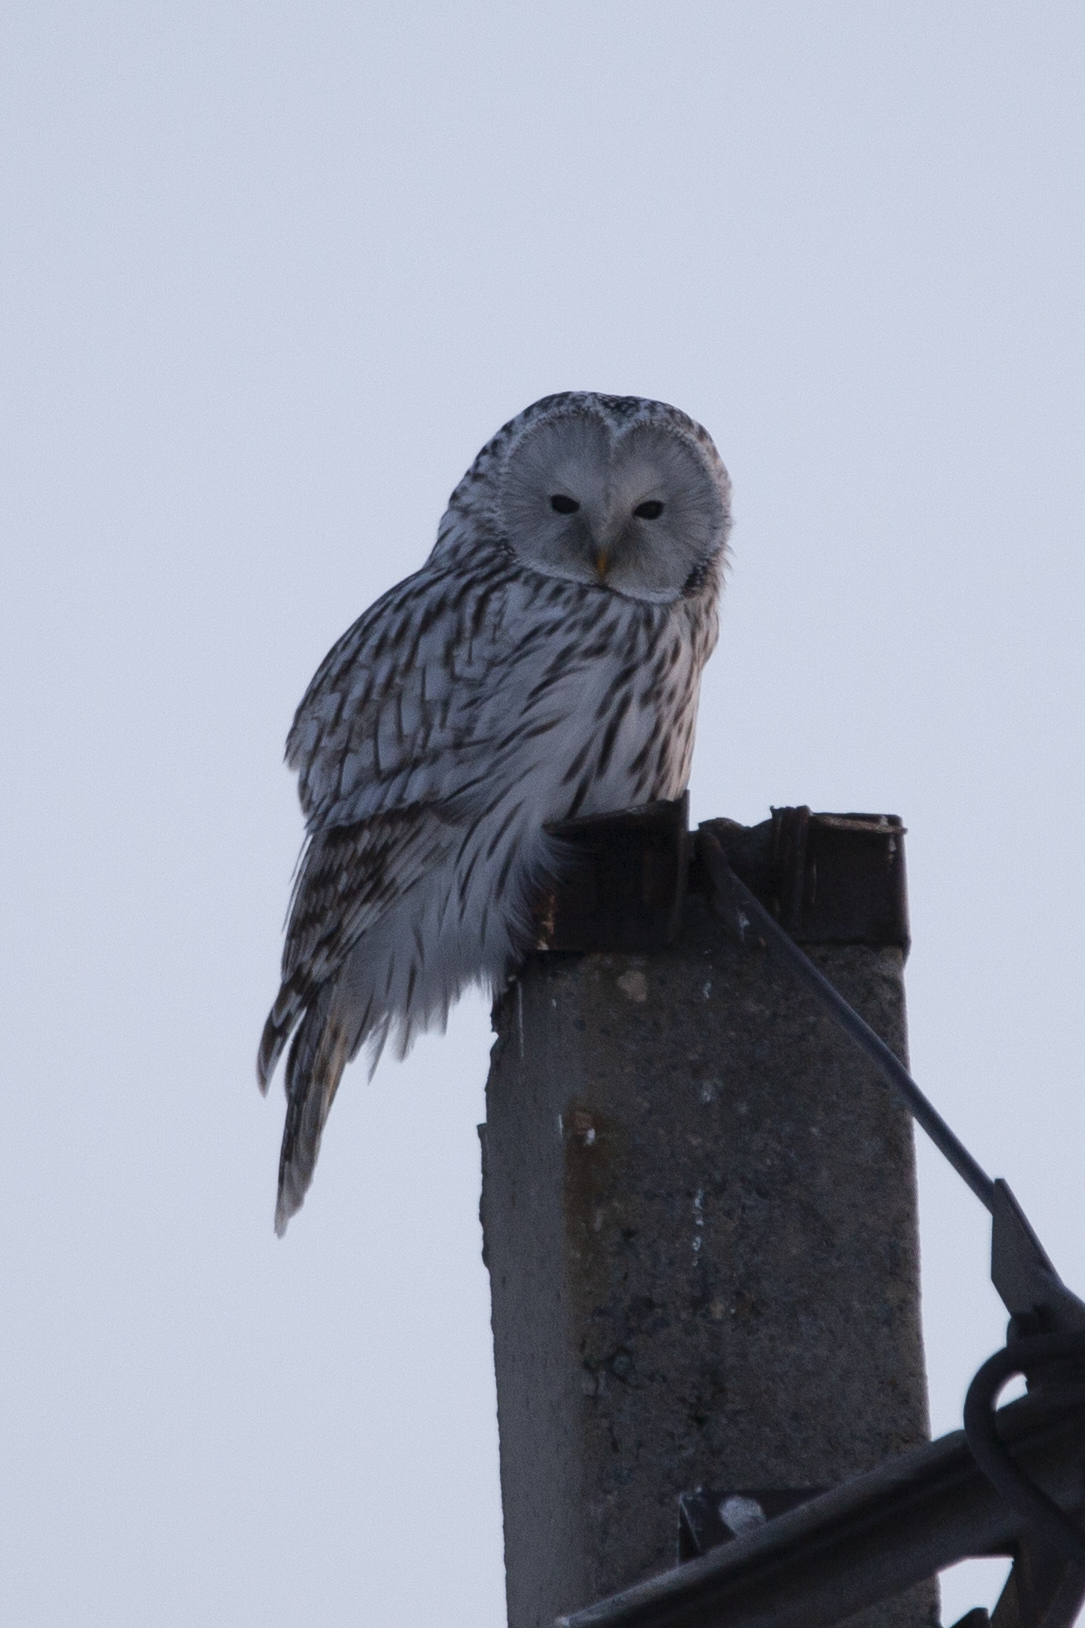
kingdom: Animalia
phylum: Chordata
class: Aves
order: Strigiformes
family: Strigidae
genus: Strix
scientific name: Strix uralensis
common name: Ural owl
